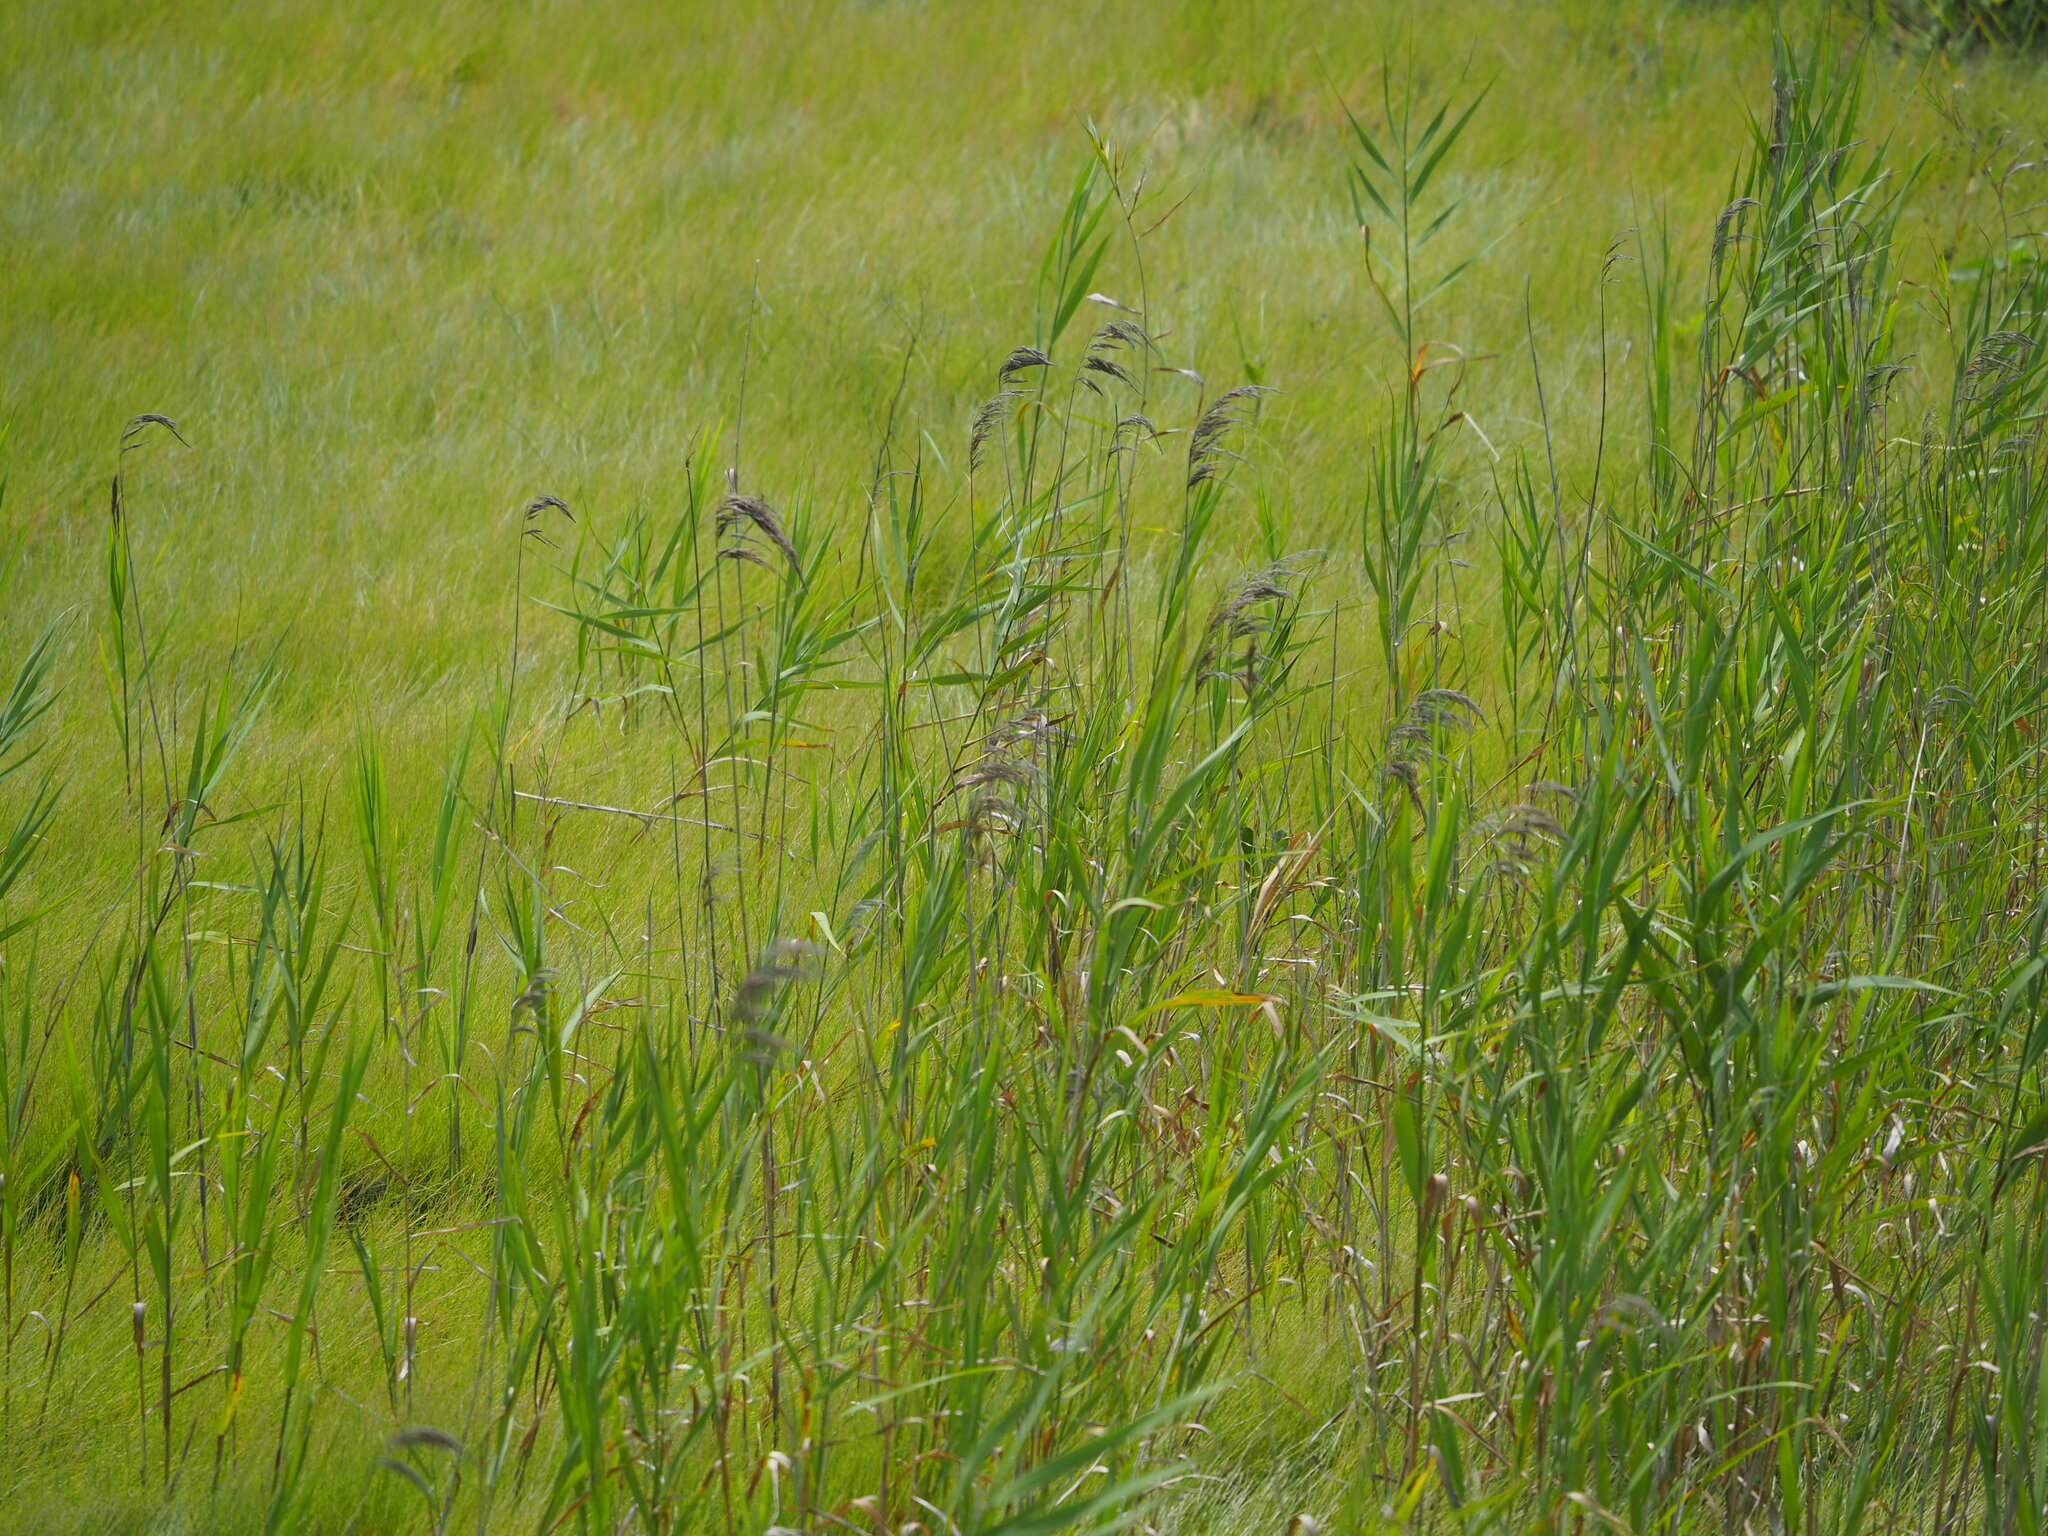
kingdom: Plantae
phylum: Tracheophyta
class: Liliopsida
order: Poales
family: Poaceae
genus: Phragmites
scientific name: Phragmites australis
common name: Common reed
